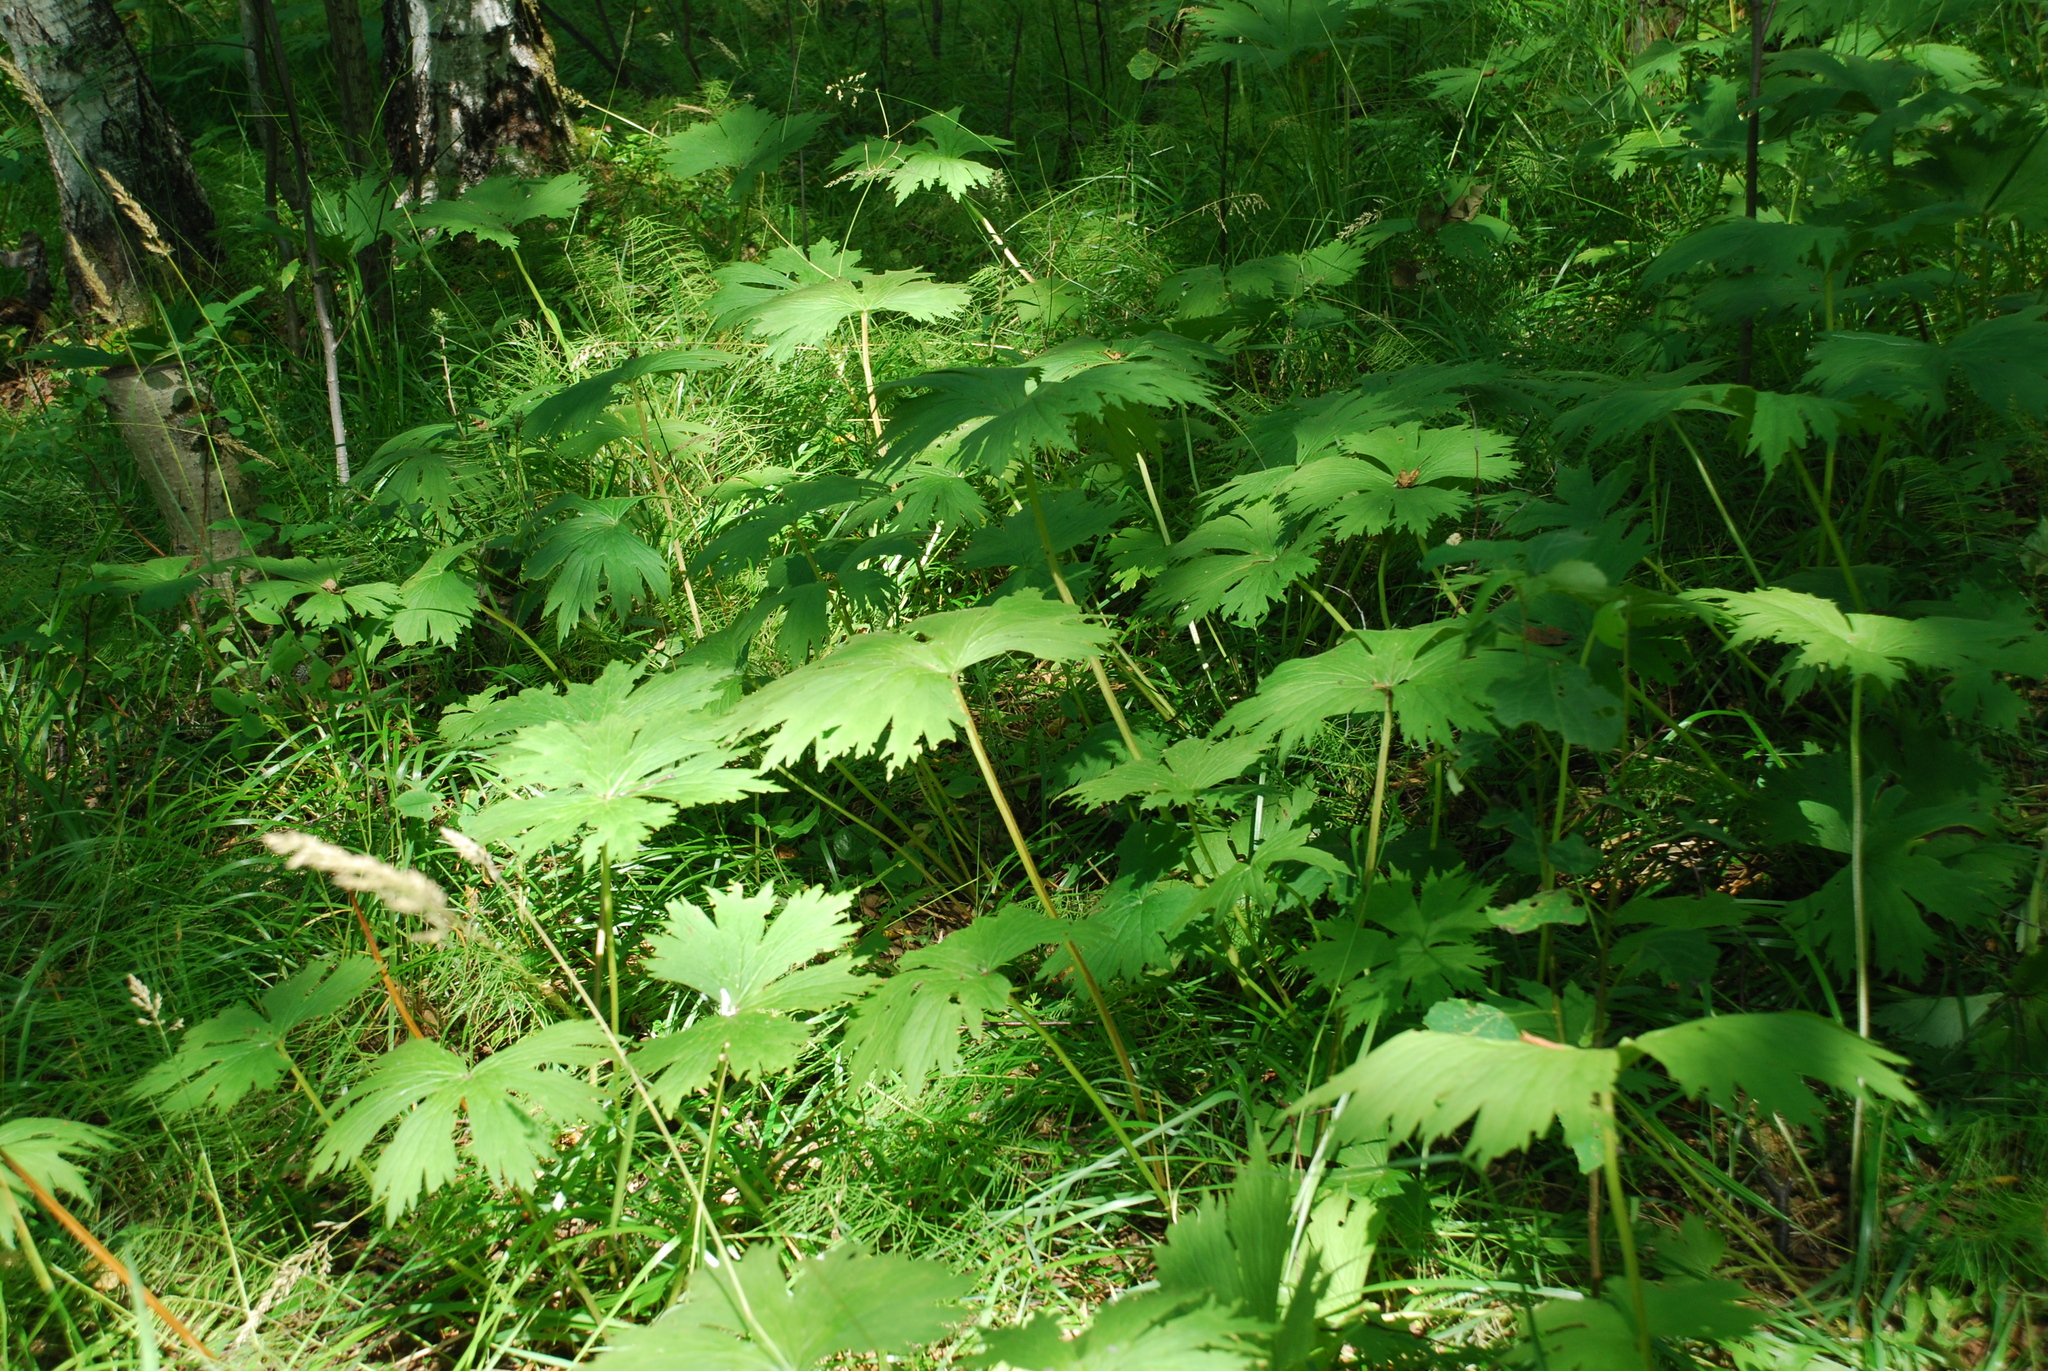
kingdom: Plantae
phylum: Tracheophyta
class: Magnoliopsida
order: Ranunculales
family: Ranunculaceae
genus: Aconitum
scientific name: Aconitum septentrionale
